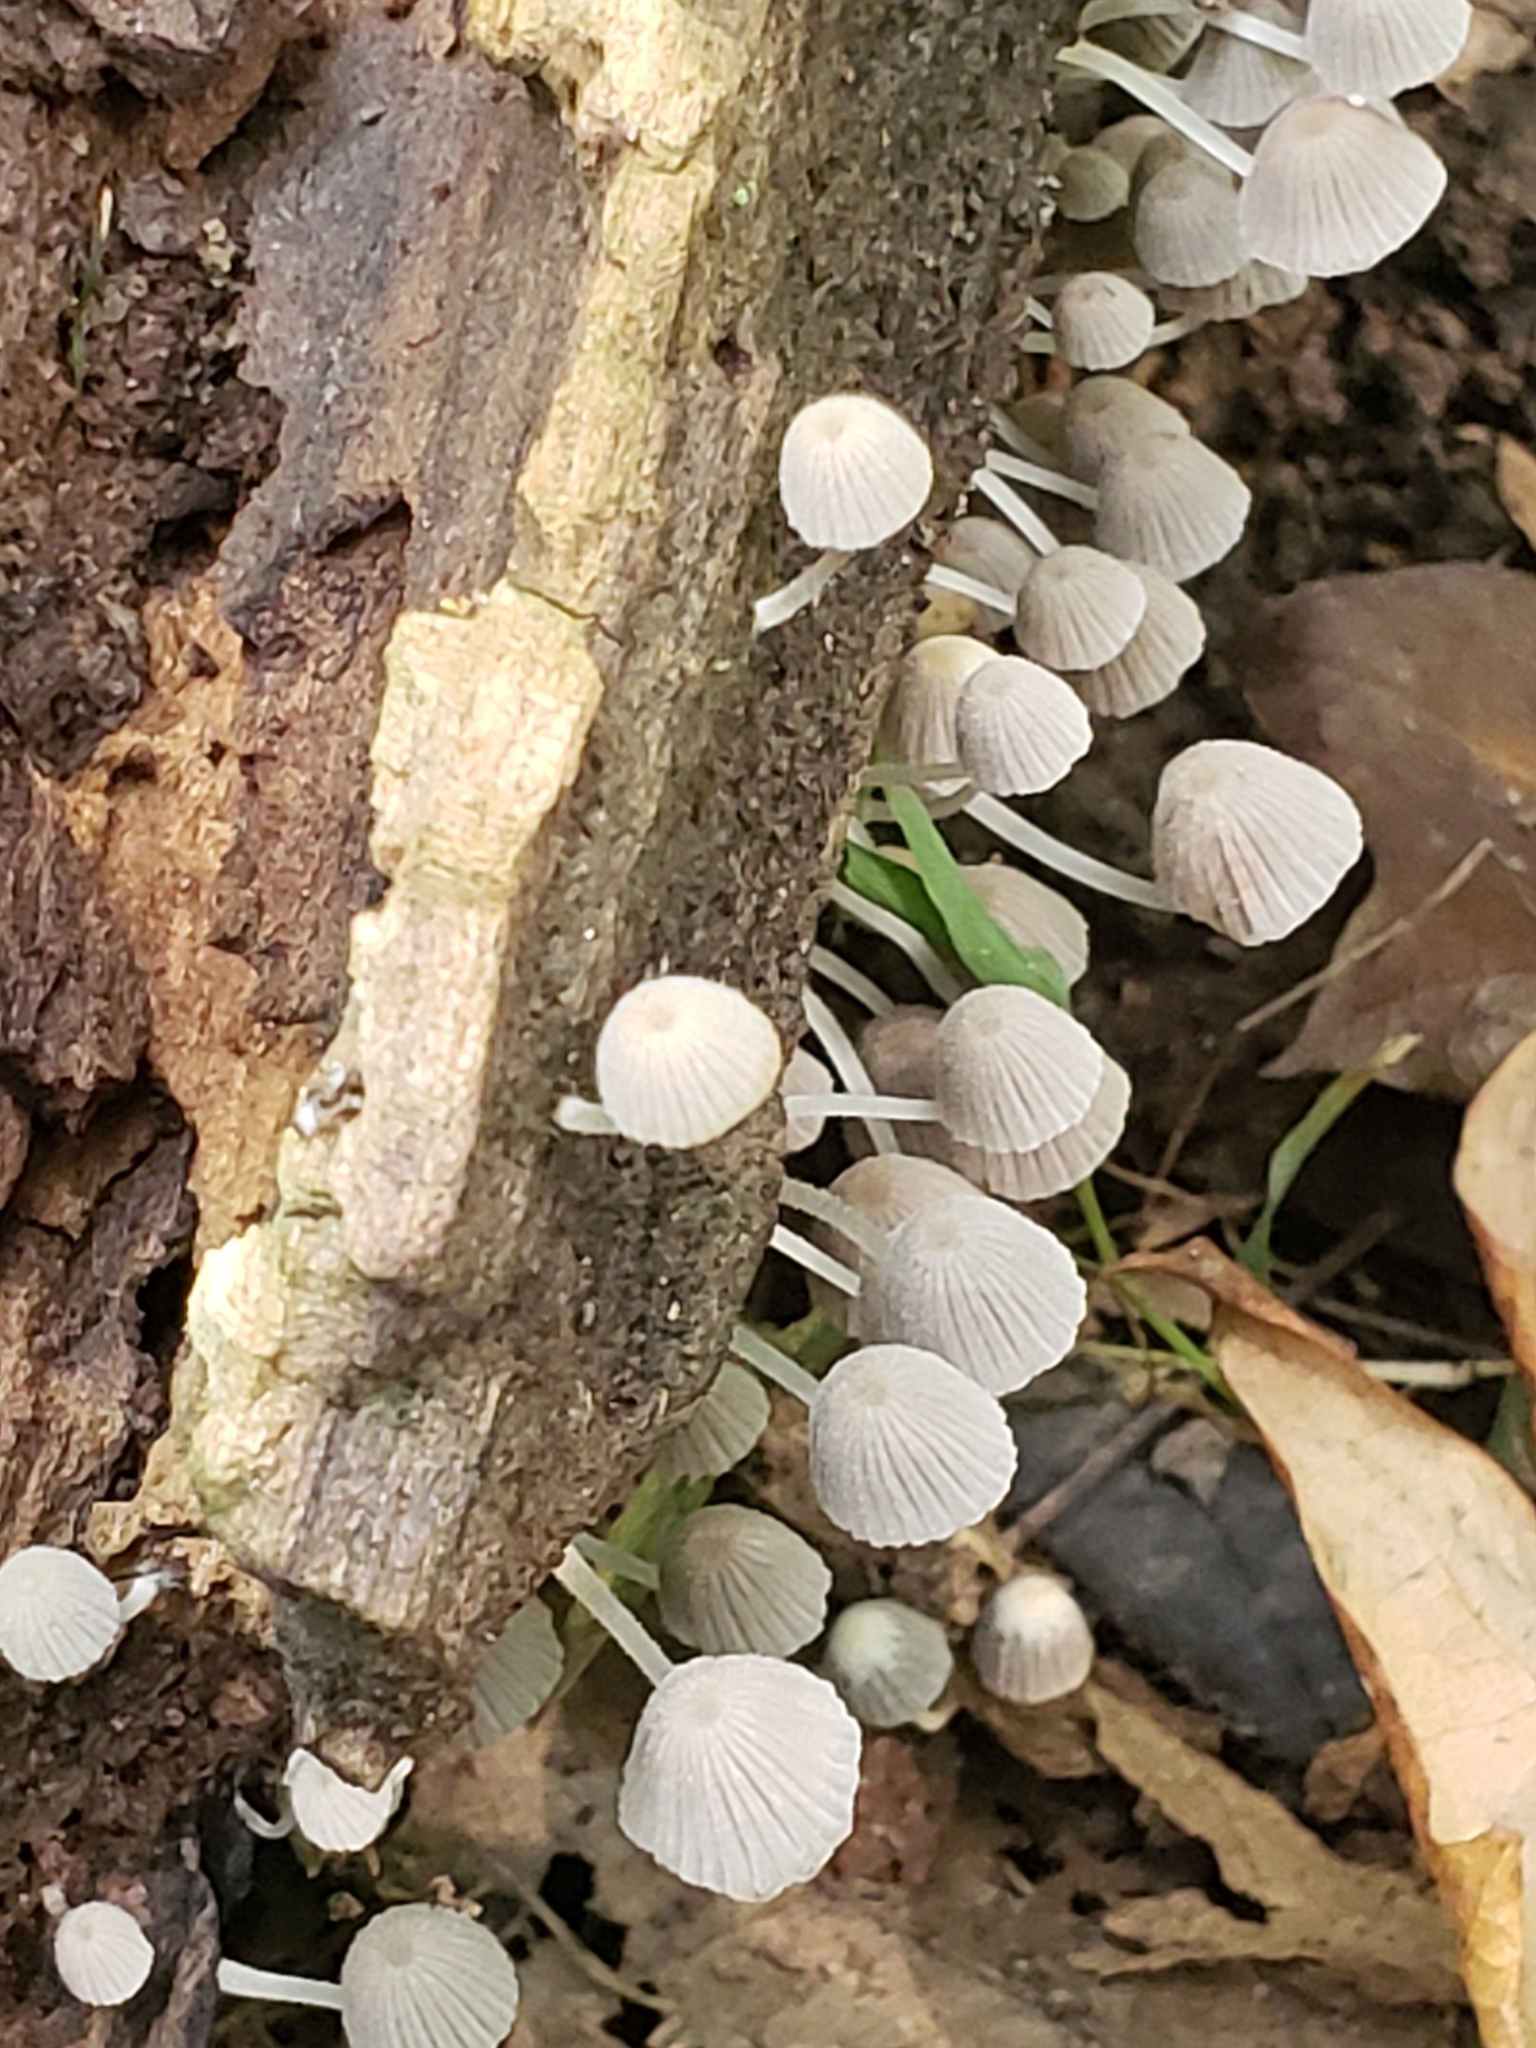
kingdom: Fungi
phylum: Basidiomycota
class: Agaricomycetes
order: Agaricales
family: Psathyrellaceae
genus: Coprinellus
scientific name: Coprinellus disseminatus
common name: Fairies' bonnets
